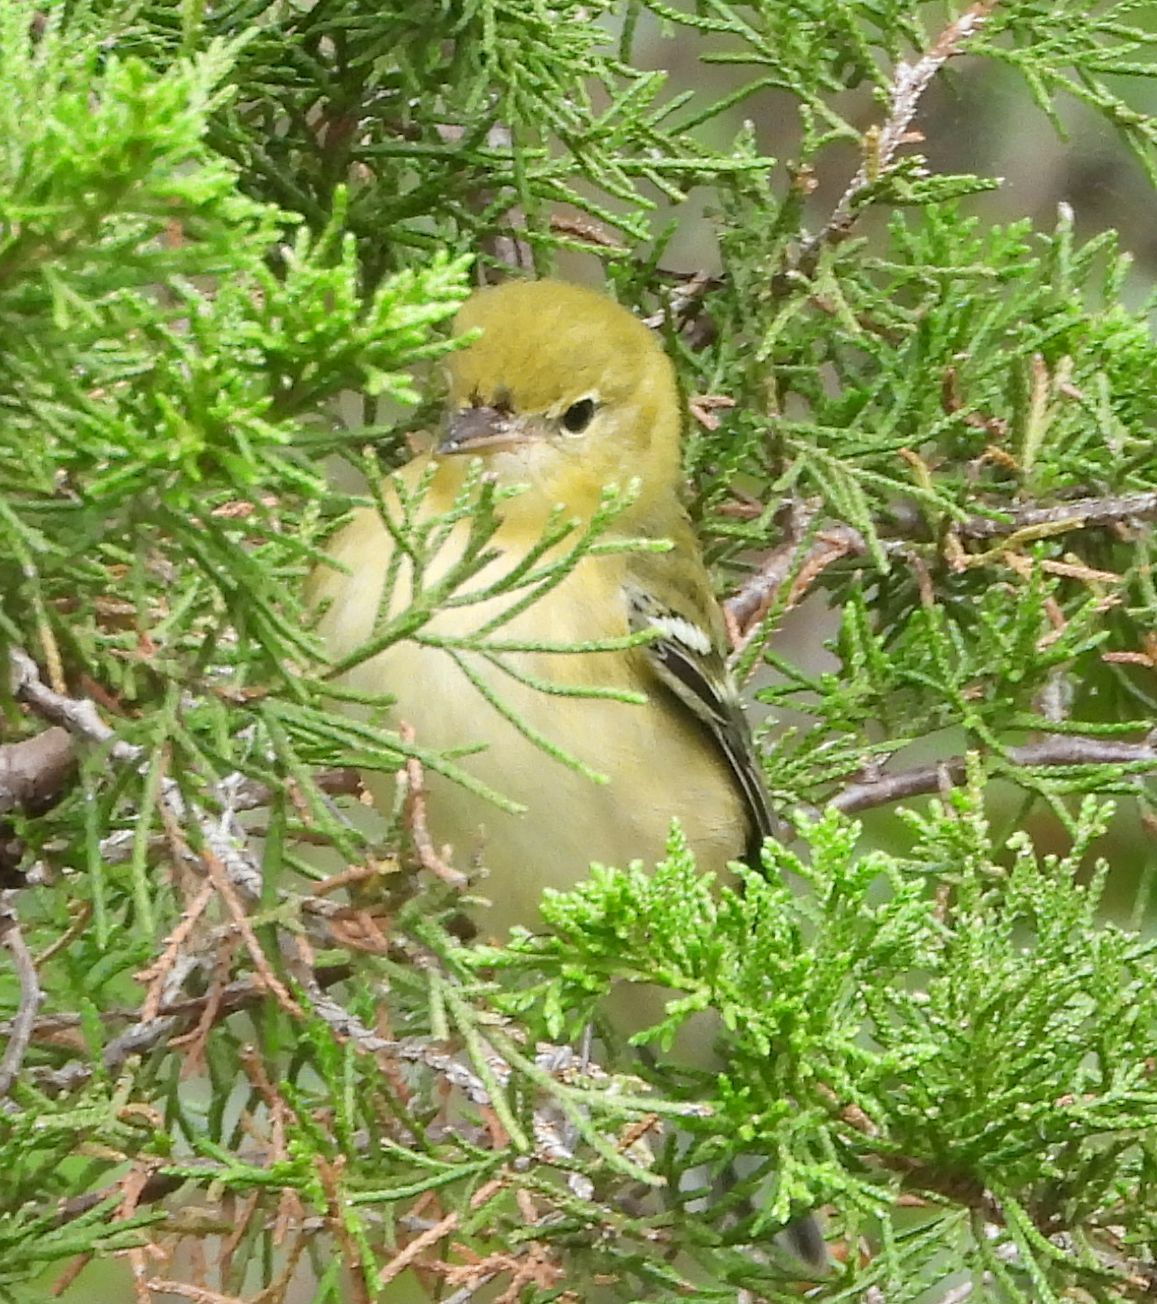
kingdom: Animalia
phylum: Chordata
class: Aves
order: Passeriformes
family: Parulidae
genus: Setophaga
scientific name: Setophaga castanea
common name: Bay-breasted warbler
